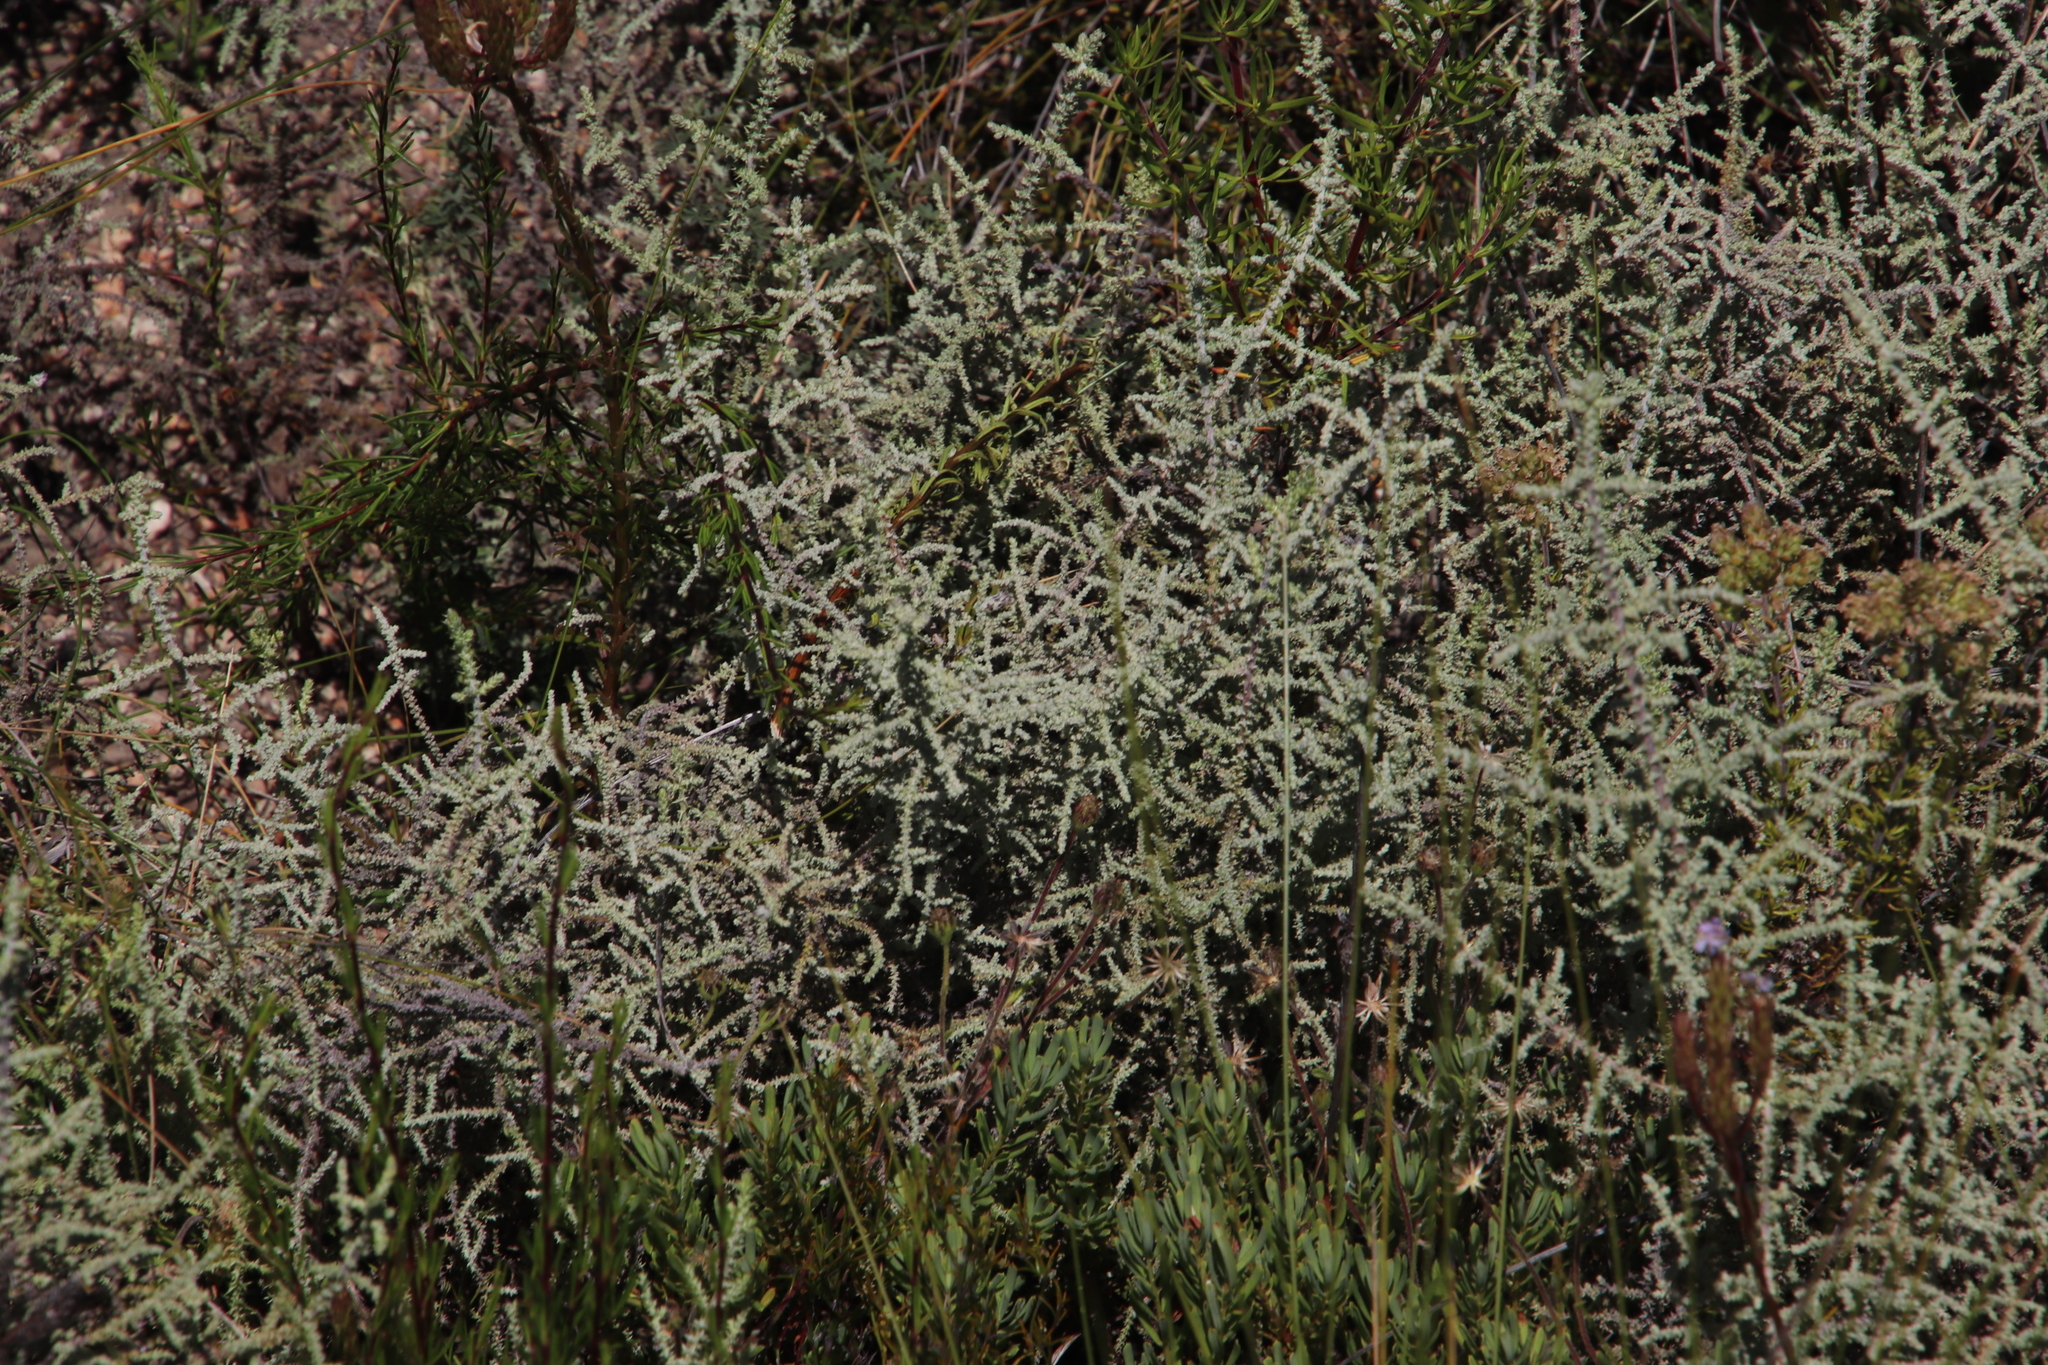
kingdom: Plantae
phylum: Tracheophyta
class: Magnoliopsida
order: Asterales
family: Asteraceae
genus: Seriphium
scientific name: Seriphium plumosum
